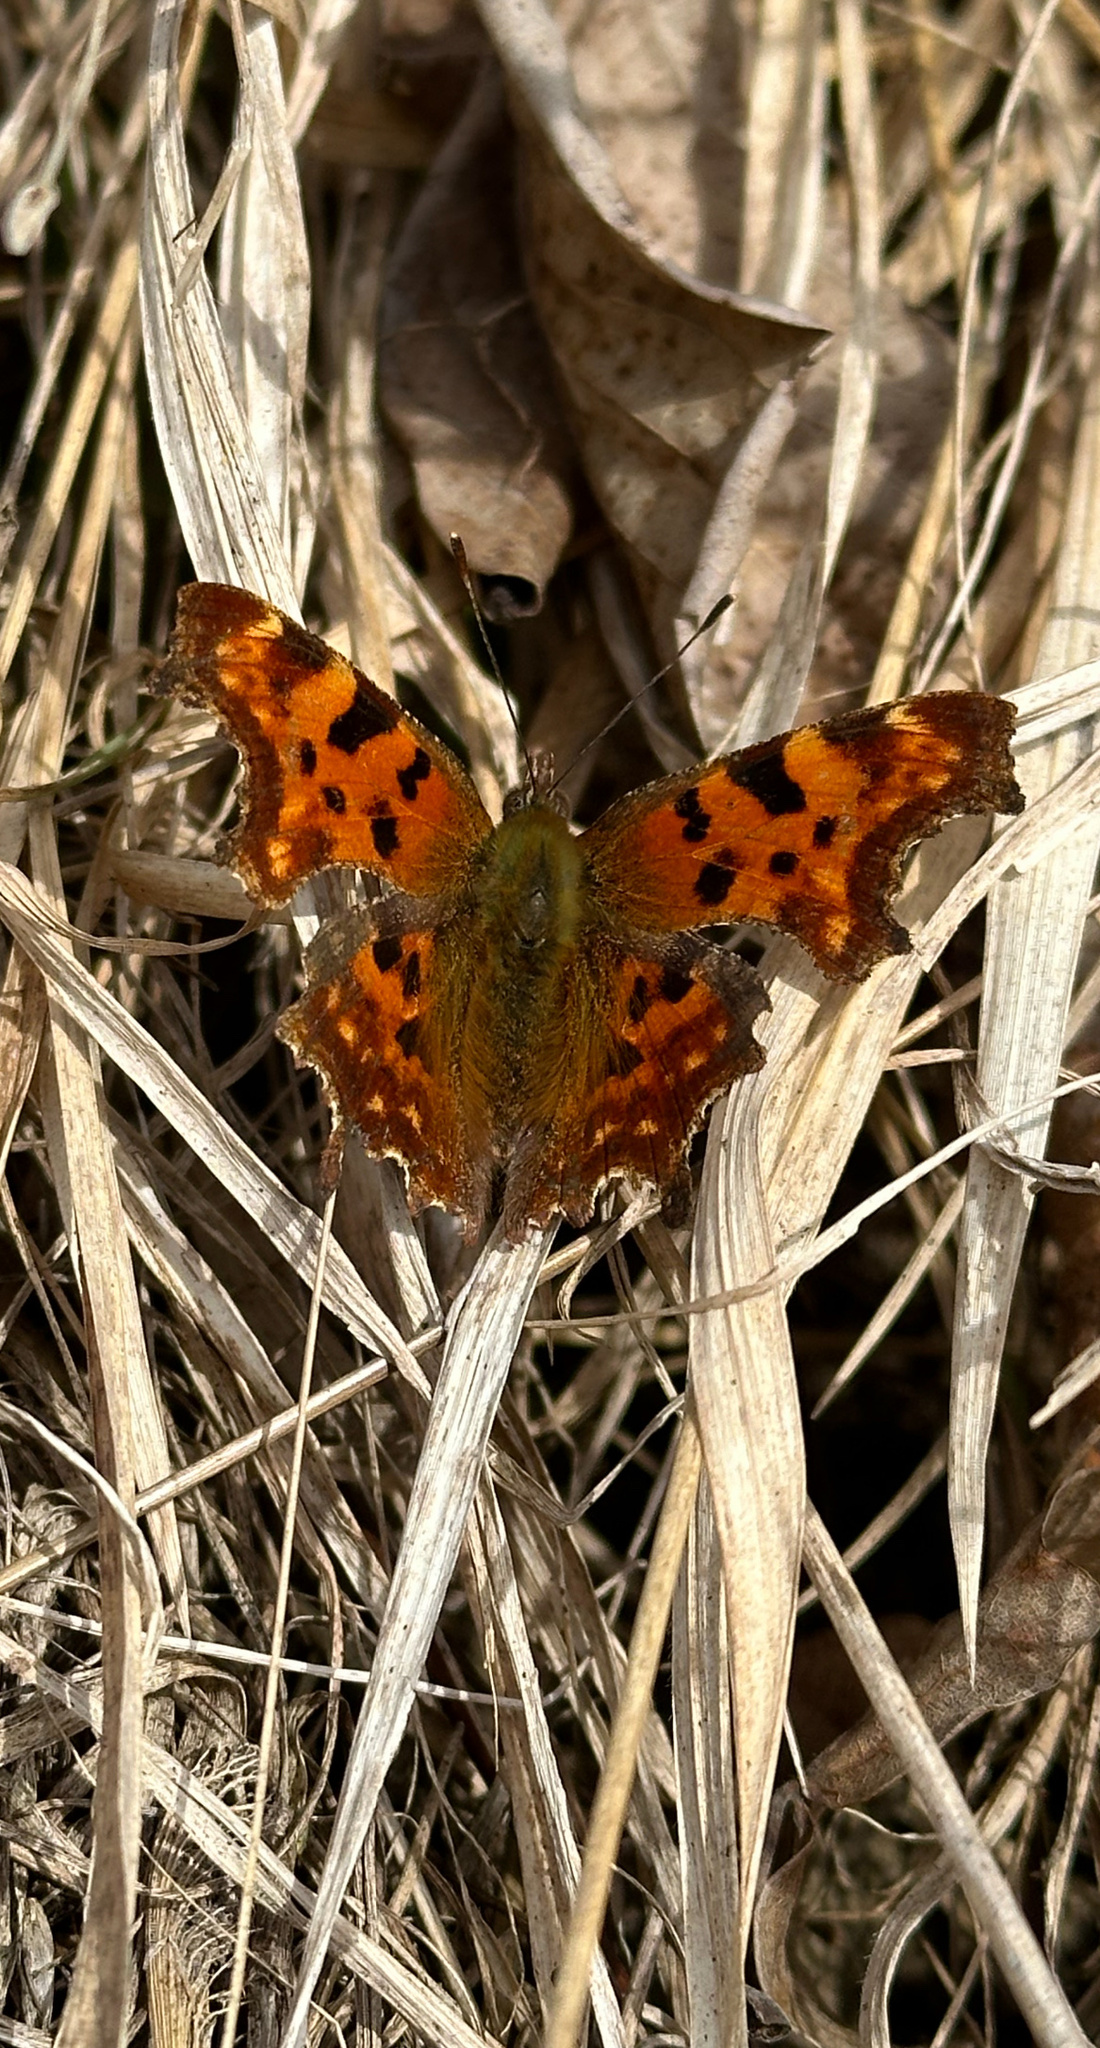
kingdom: Animalia
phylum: Arthropoda
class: Insecta
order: Lepidoptera
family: Nymphalidae
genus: Polygonia
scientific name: Polygonia c-album
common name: Comma
